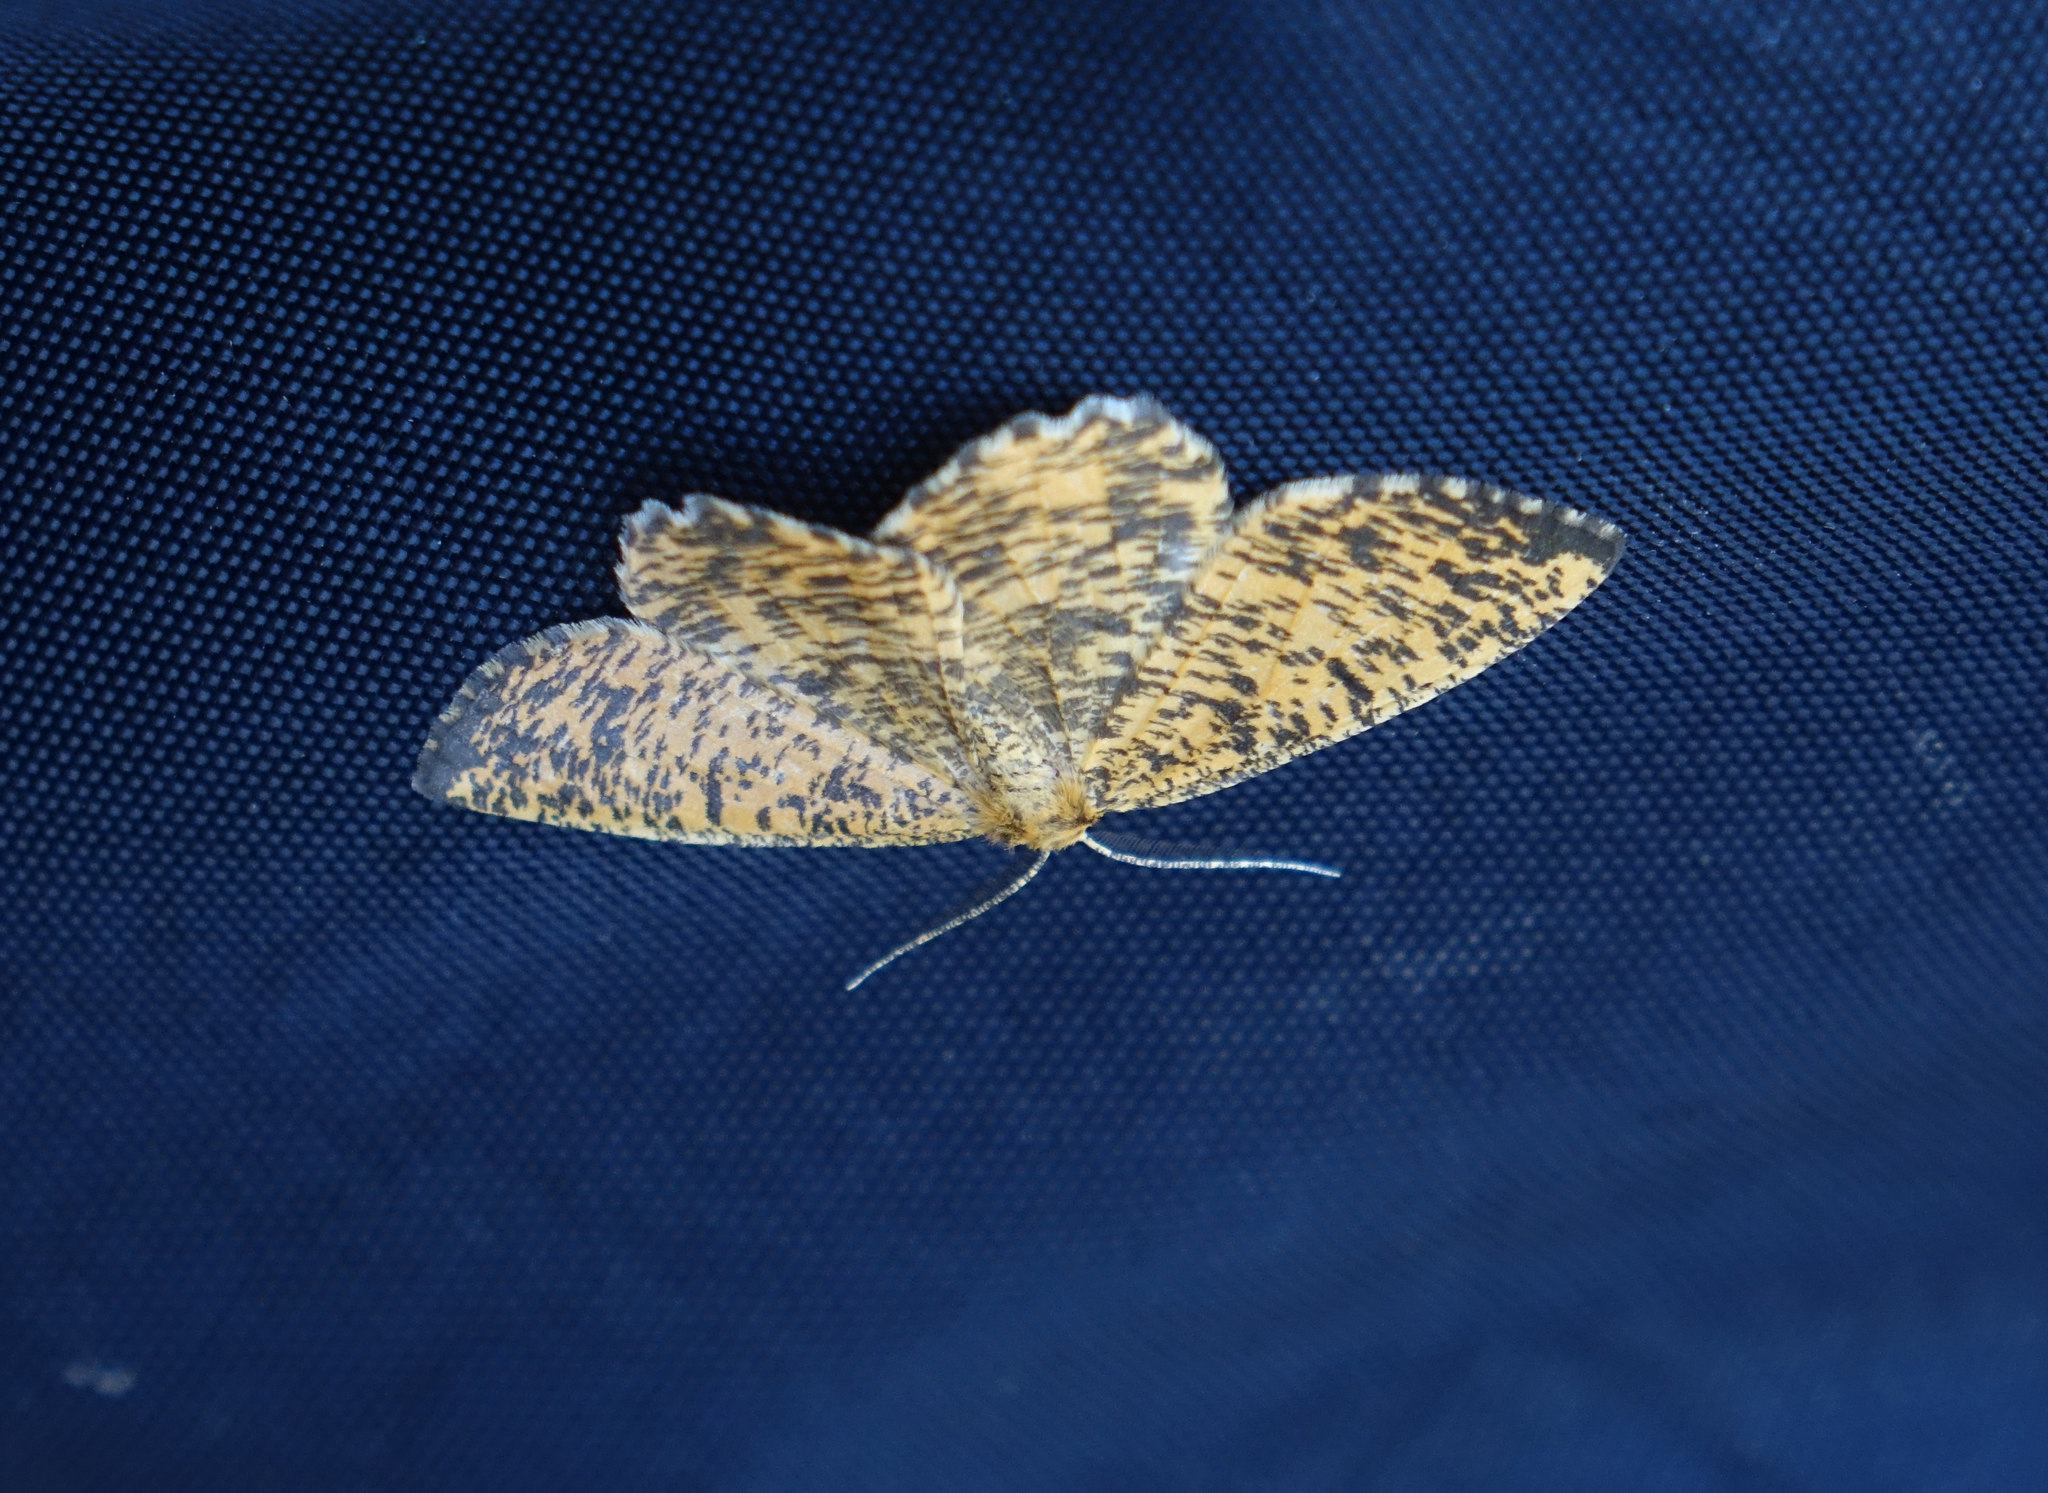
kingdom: Animalia
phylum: Arthropoda
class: Insecta
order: Lepidoptera
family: Geometridae
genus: Angerona
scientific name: Angerona prunaria
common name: Orange moth
